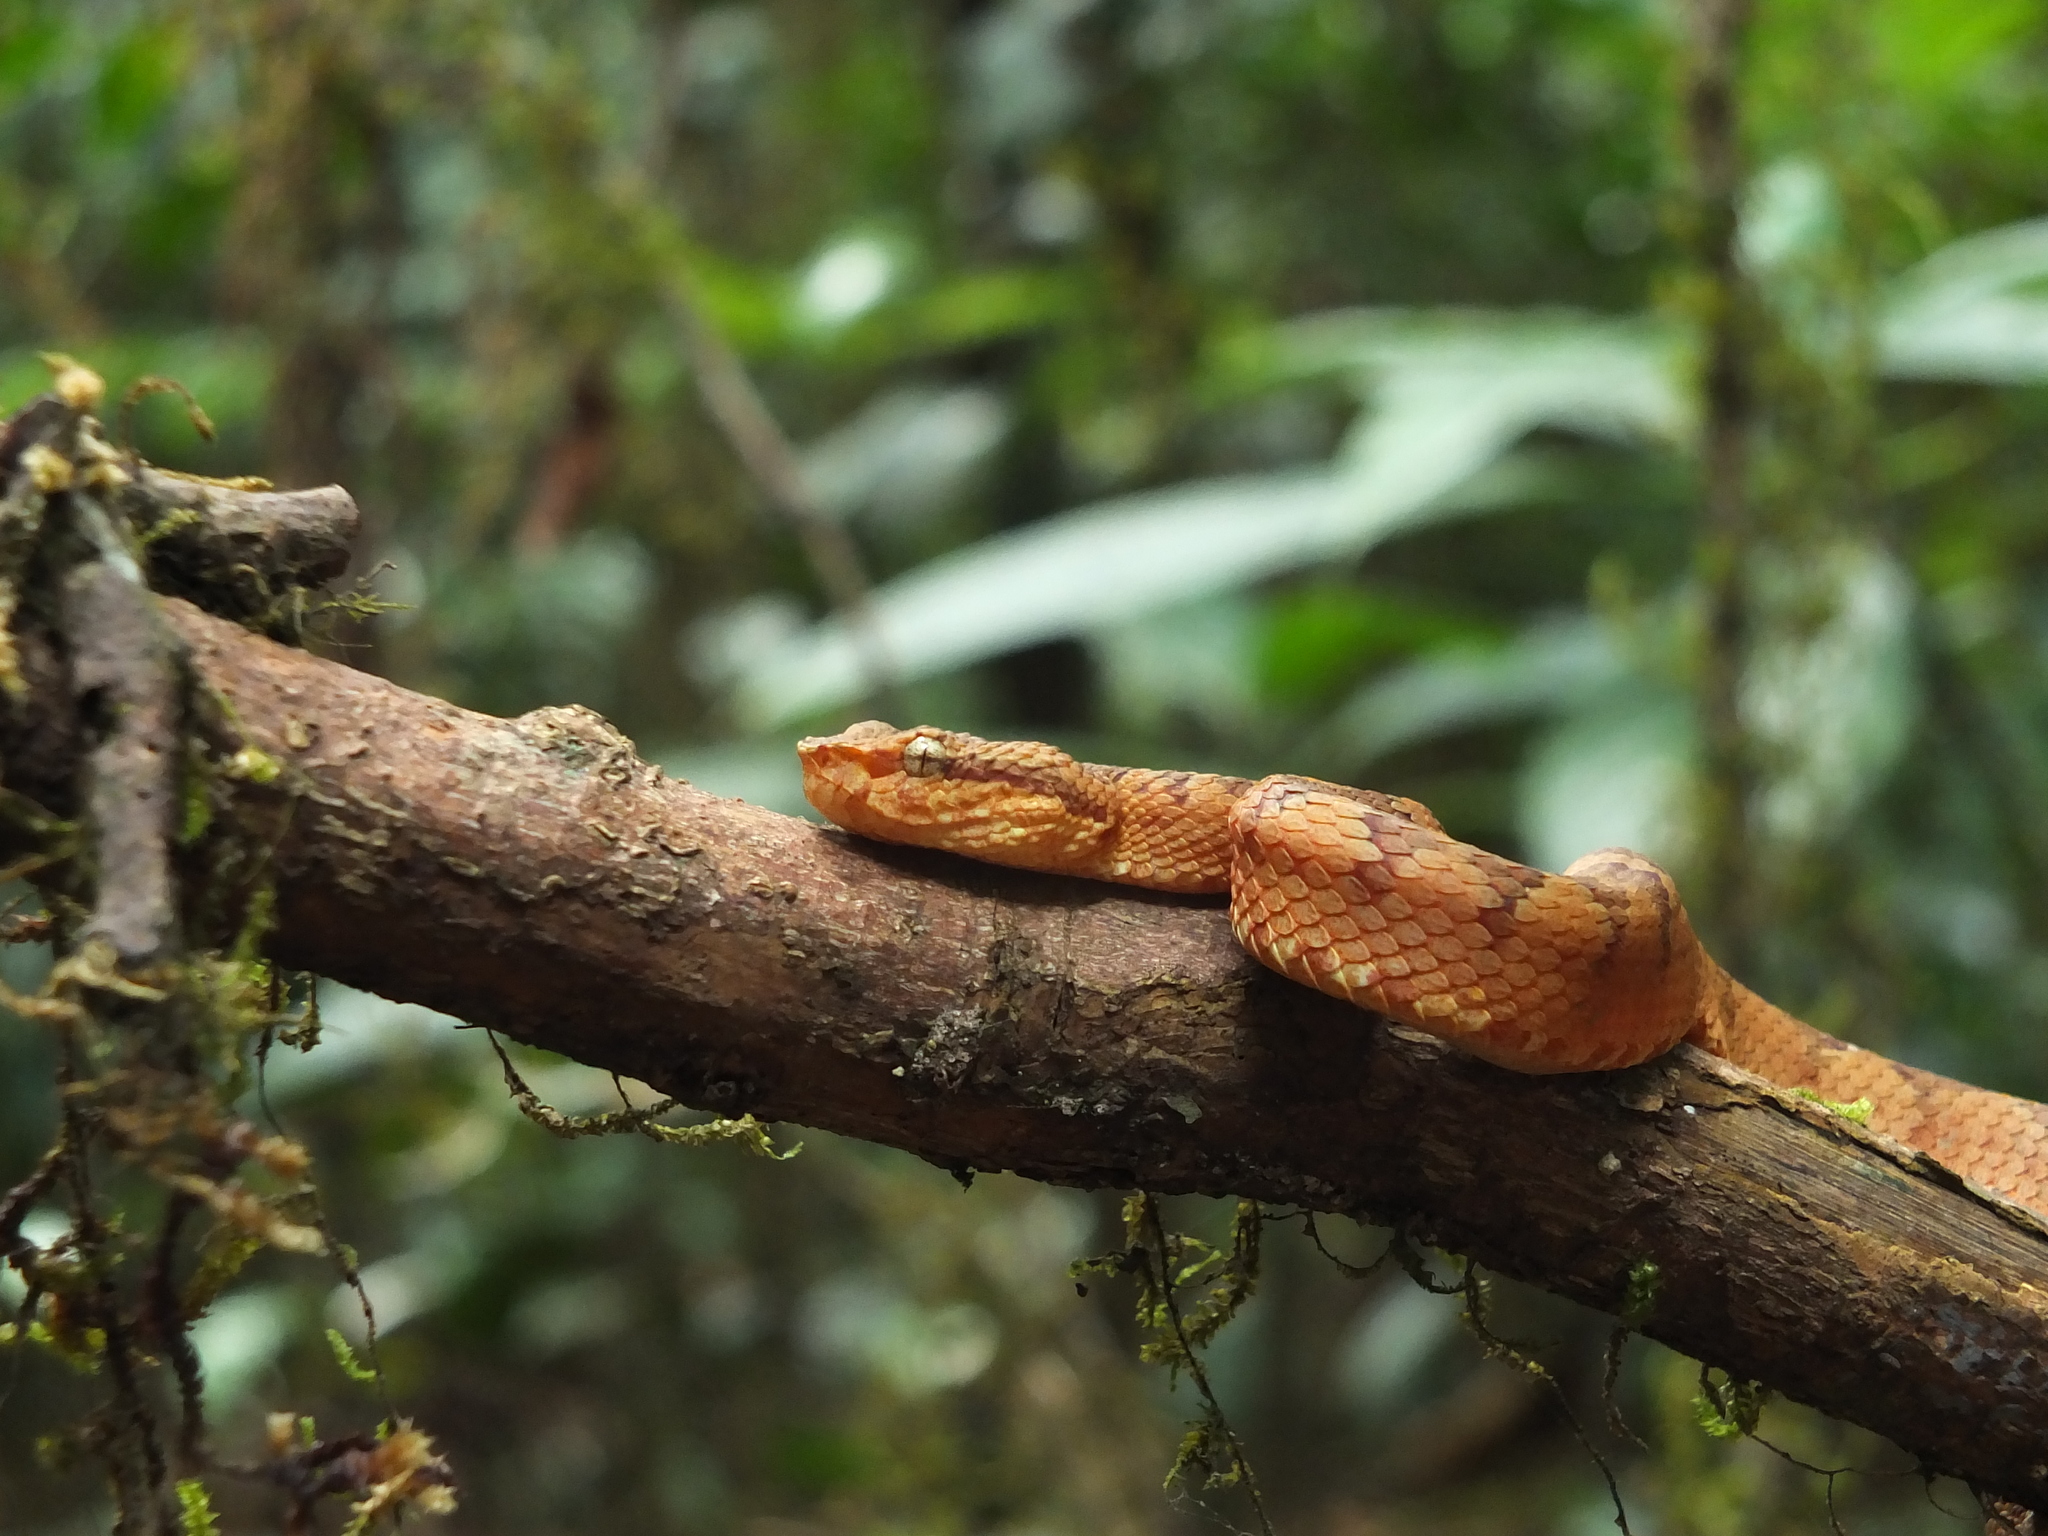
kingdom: Animalia
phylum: Chordata
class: Squamata
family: Viperidae
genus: Craspedocephalus
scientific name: Craspedocephalus malabaricus
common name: Malabarian pit viper
